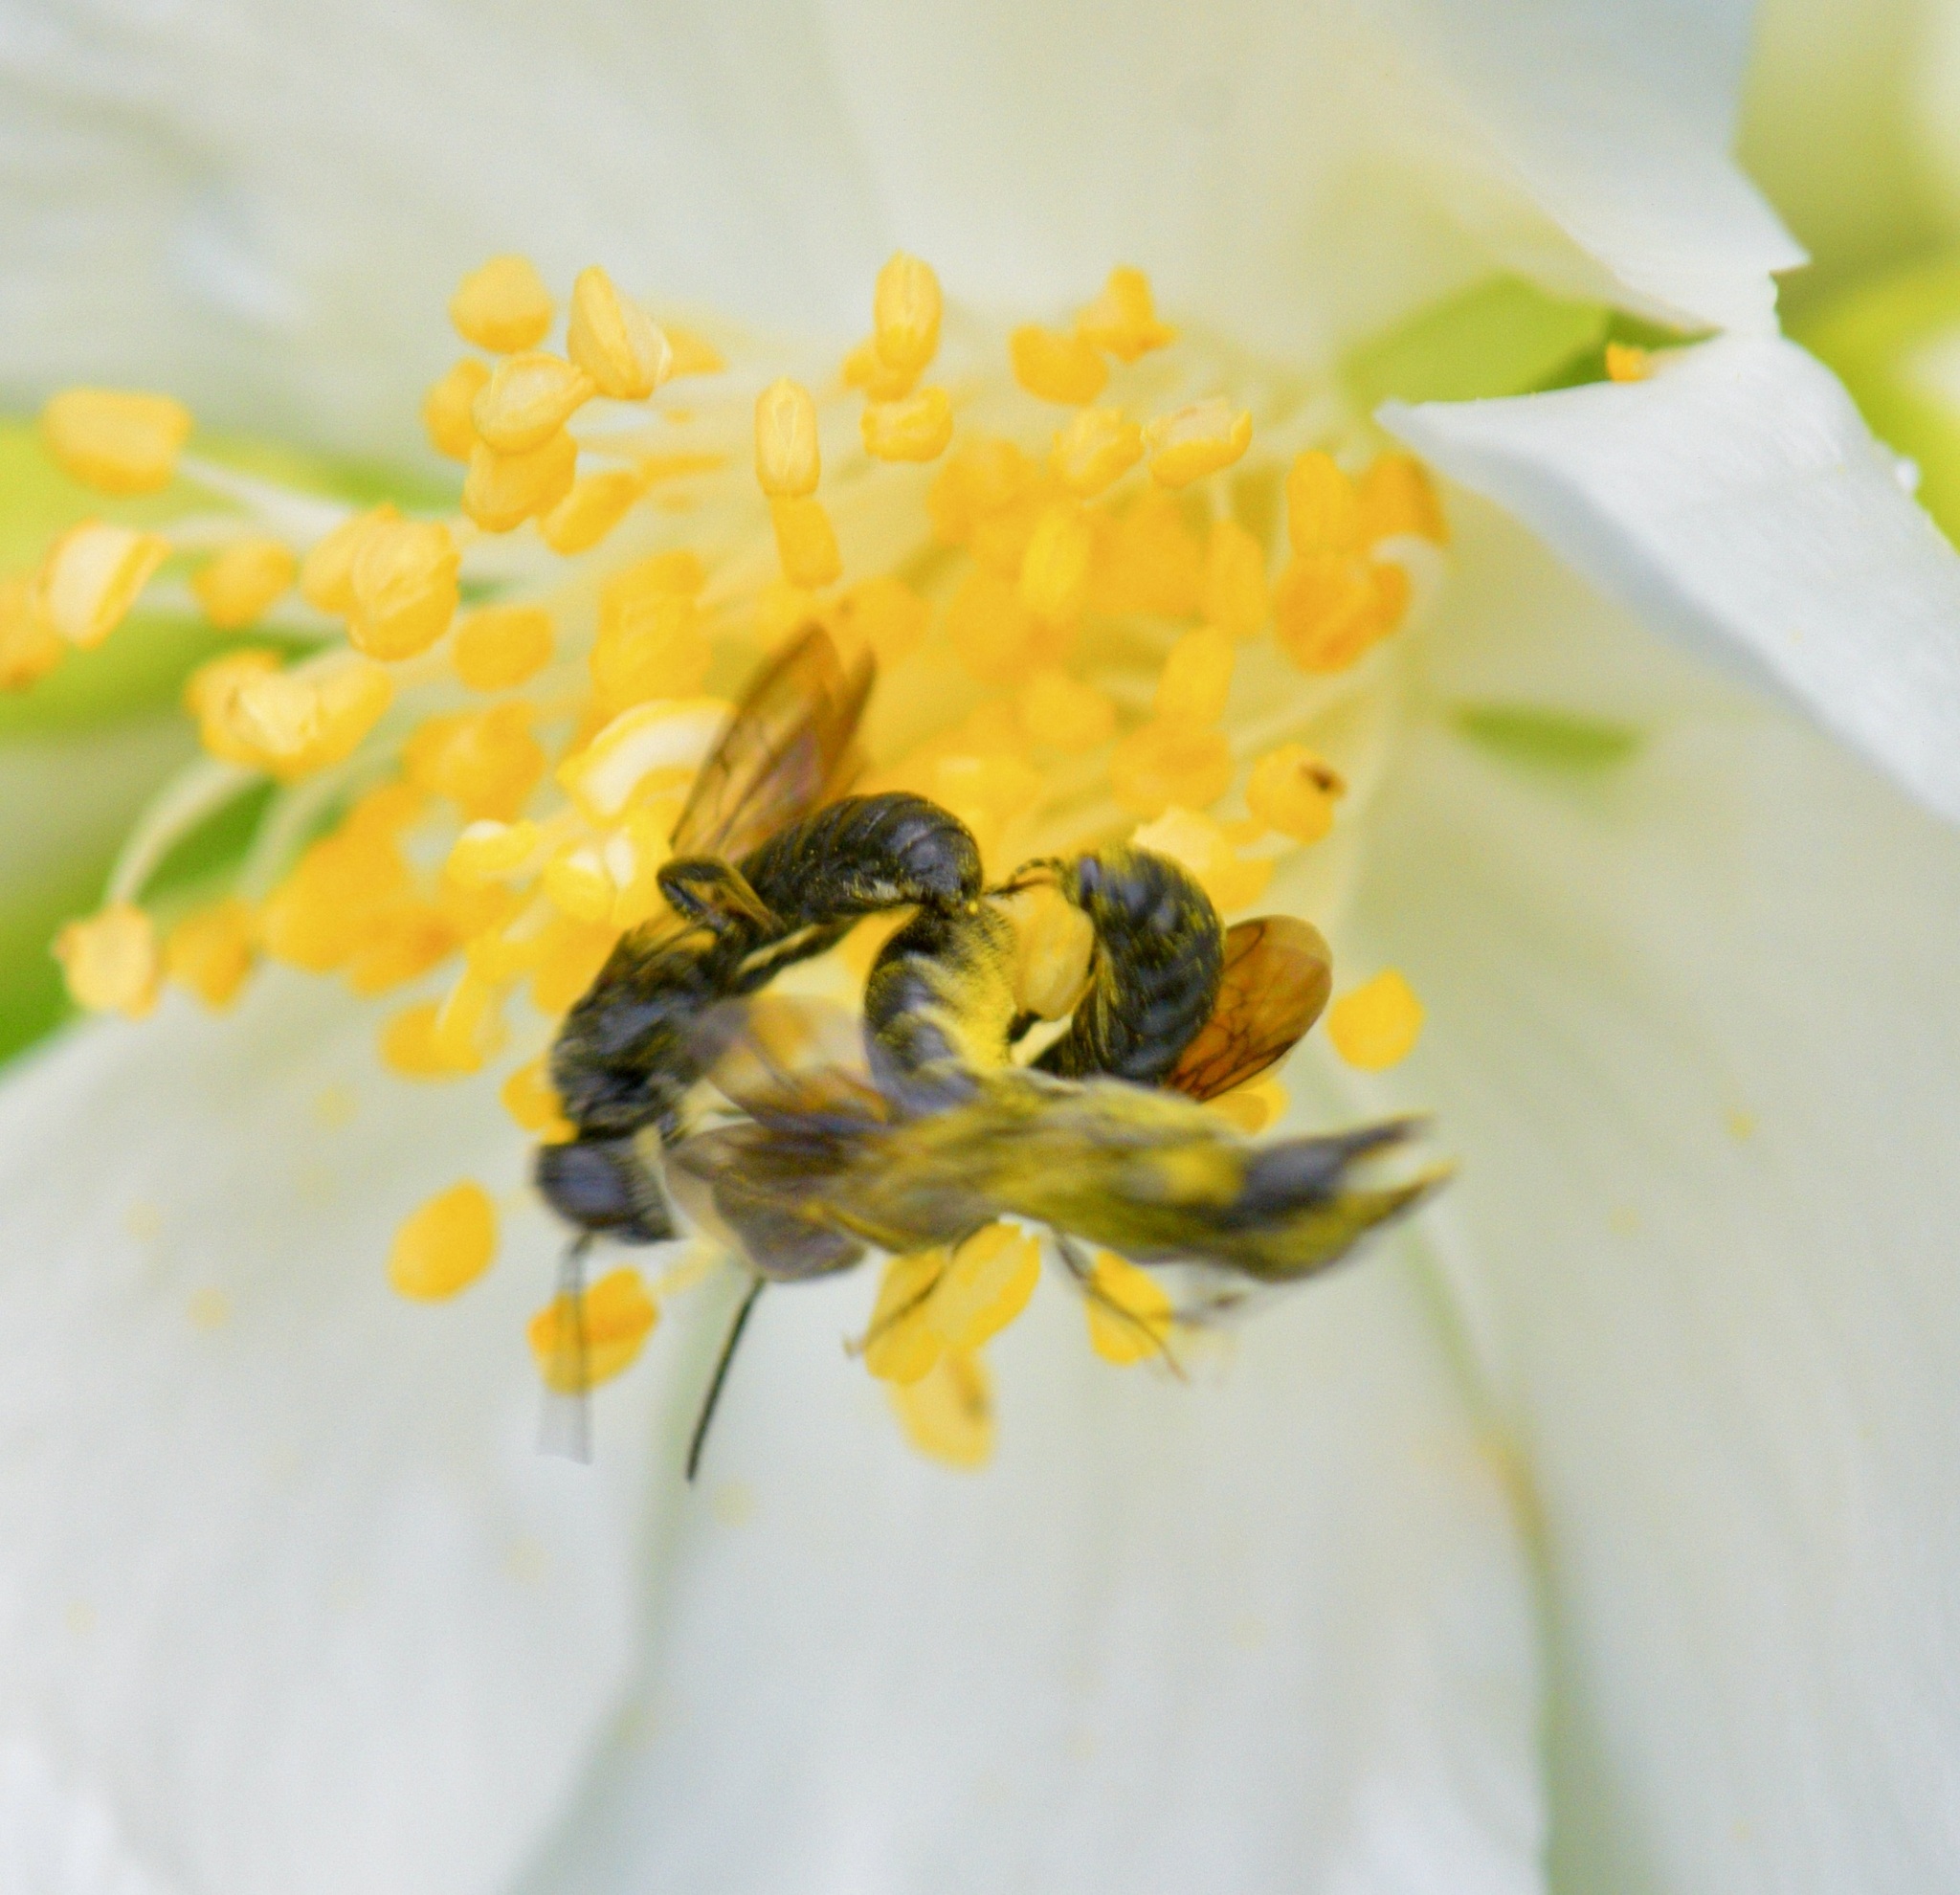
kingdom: Animalia
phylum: Arthropoda
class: Insecta
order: Hymenoptera
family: Megachilidae
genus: Chelostoma
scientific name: Chelostoma philadelphi
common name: Mock-orange scissor bee
